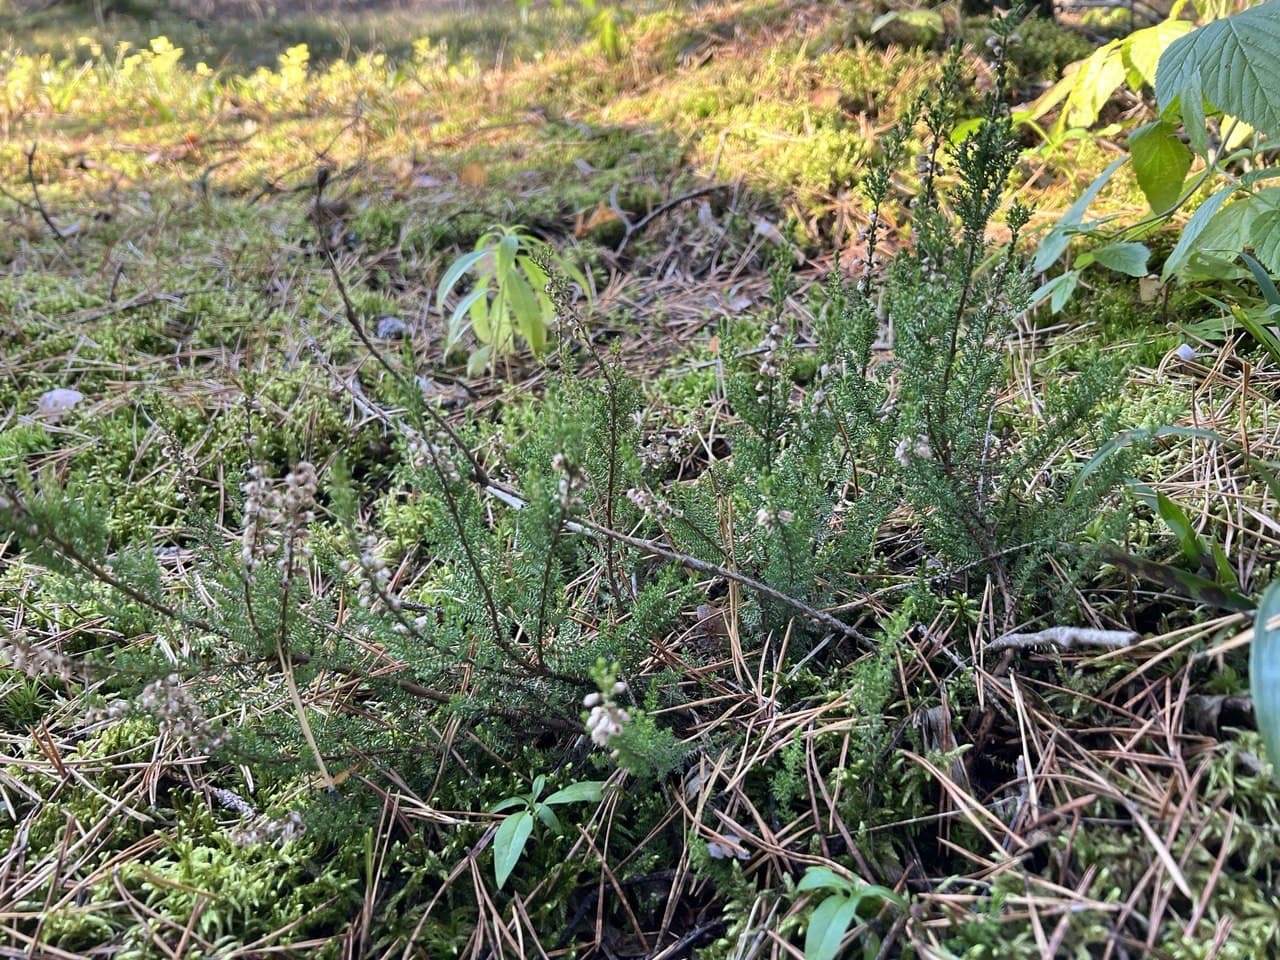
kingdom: Plantae
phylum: Tracheophyta
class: Magnoliopsida
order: Ericales
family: Ericaceae
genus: Calluna
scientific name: Calluna vulgaris
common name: Heather
